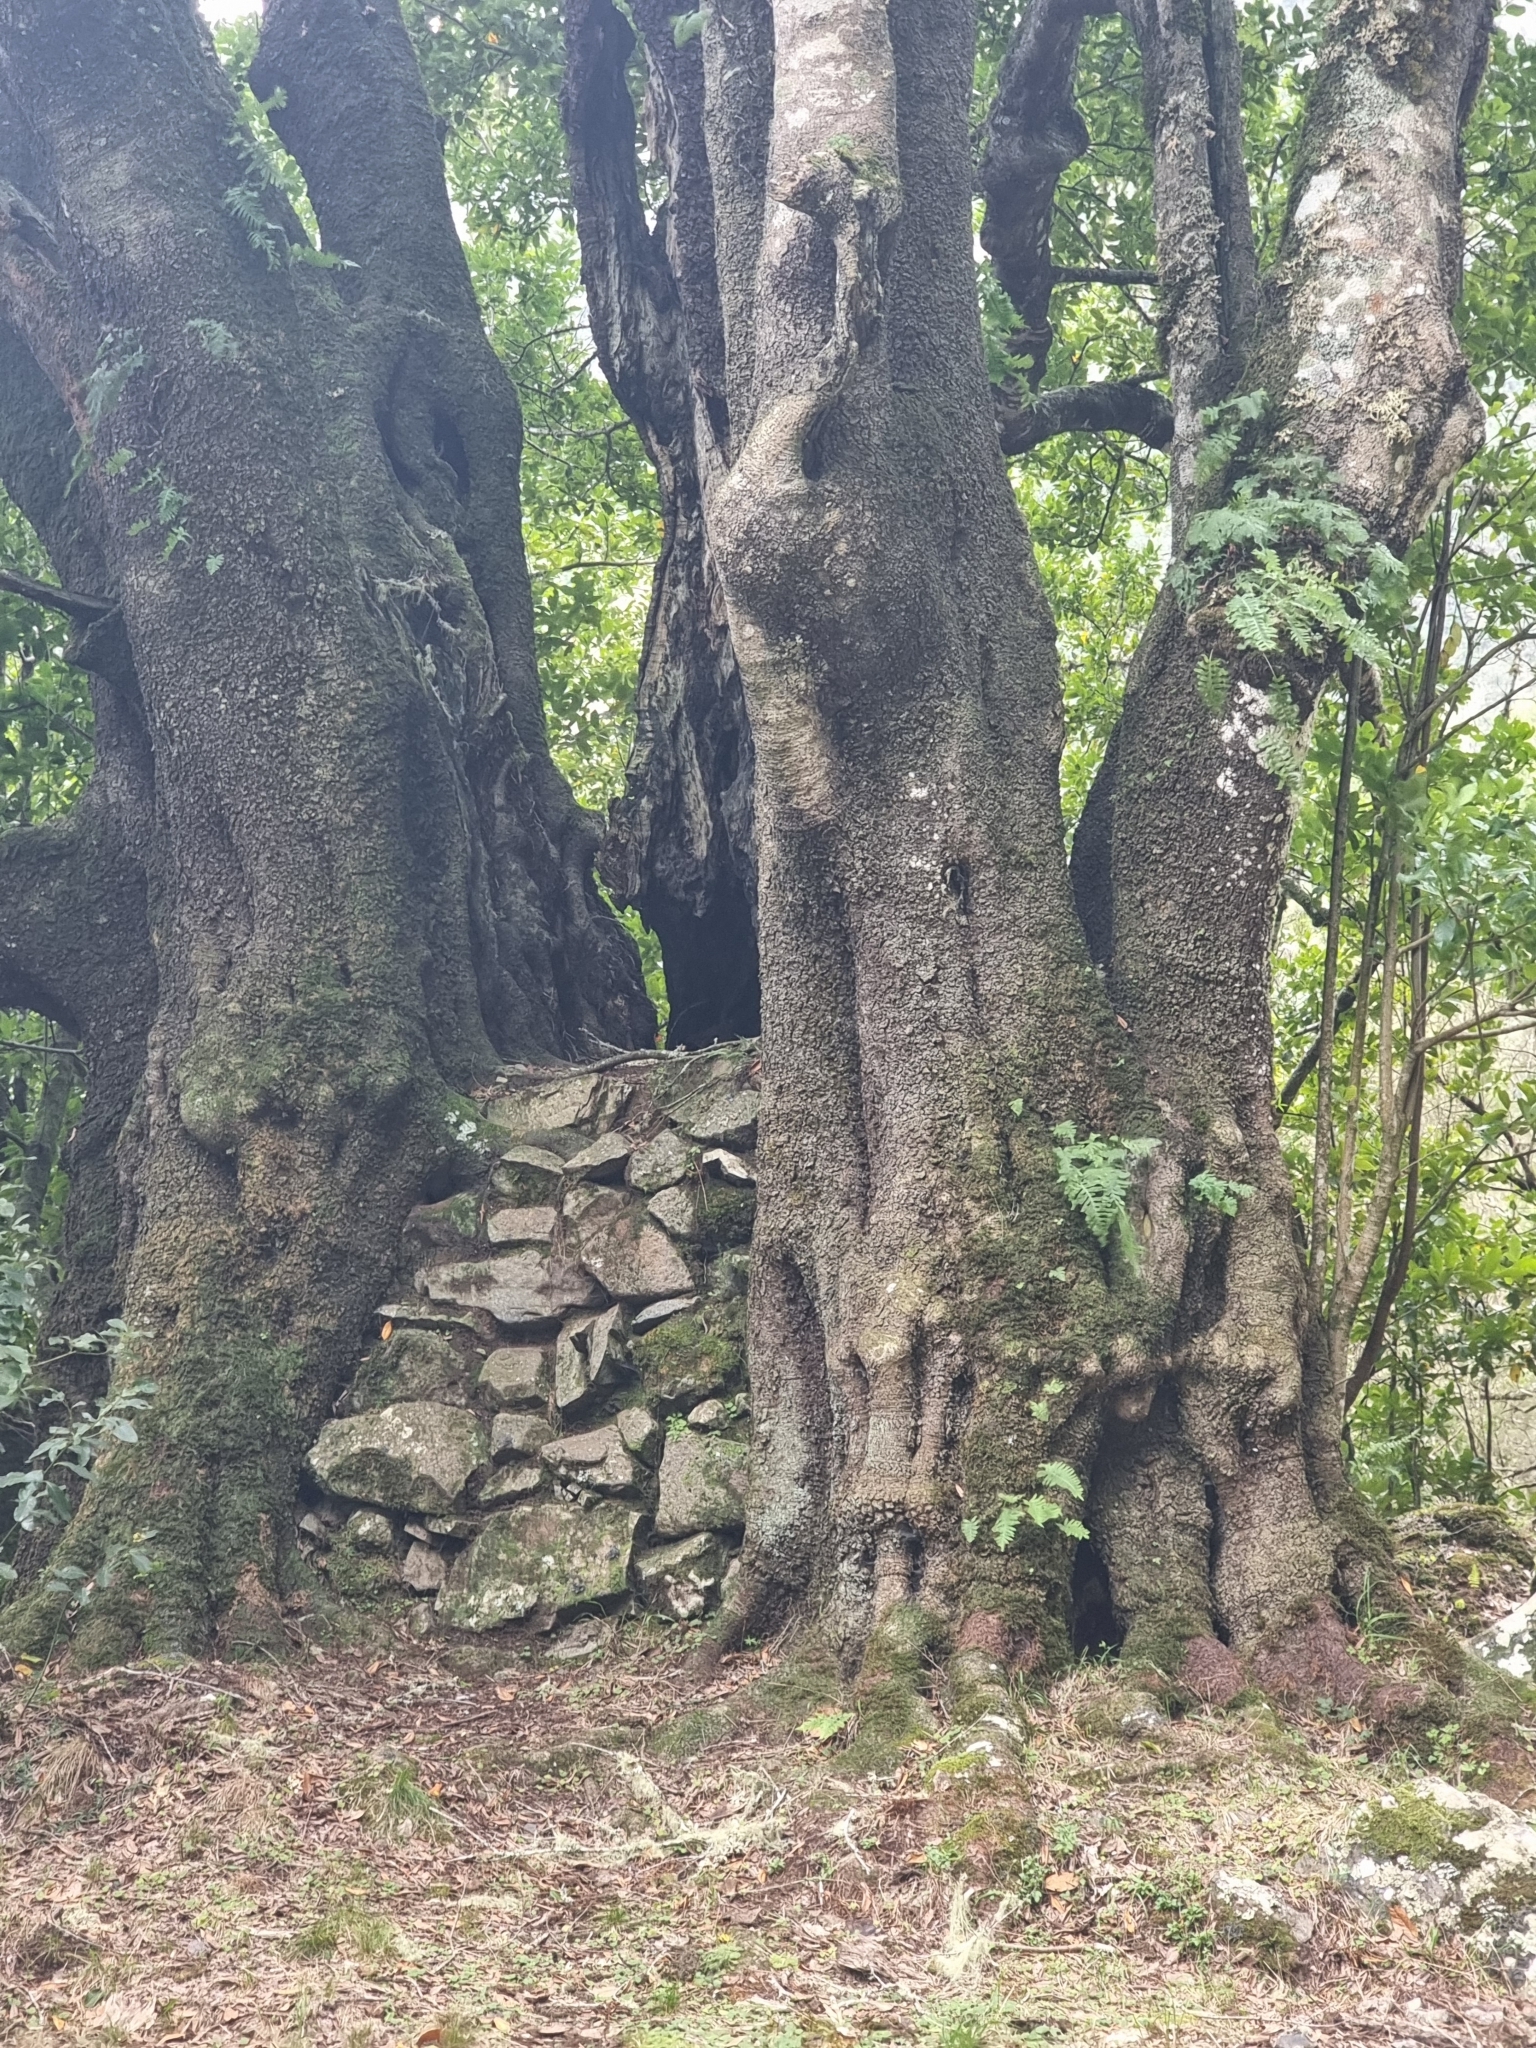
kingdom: Plantae
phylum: Tracheophyta
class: Magnoliopsida
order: Laurales
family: Lauraceae
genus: Mespilodaphne
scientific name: Mespilodaphne foetens
